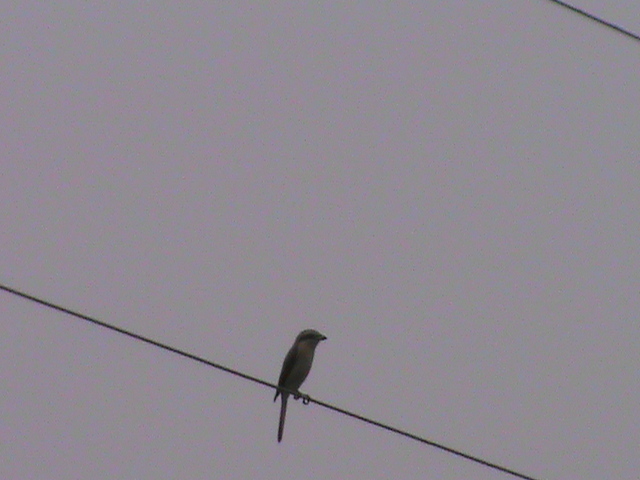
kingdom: Animalia
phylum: Chordata
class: Aves
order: Passeriformes
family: Laniidae
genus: Lanius
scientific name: Lanius cristatus
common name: Brown shrike
